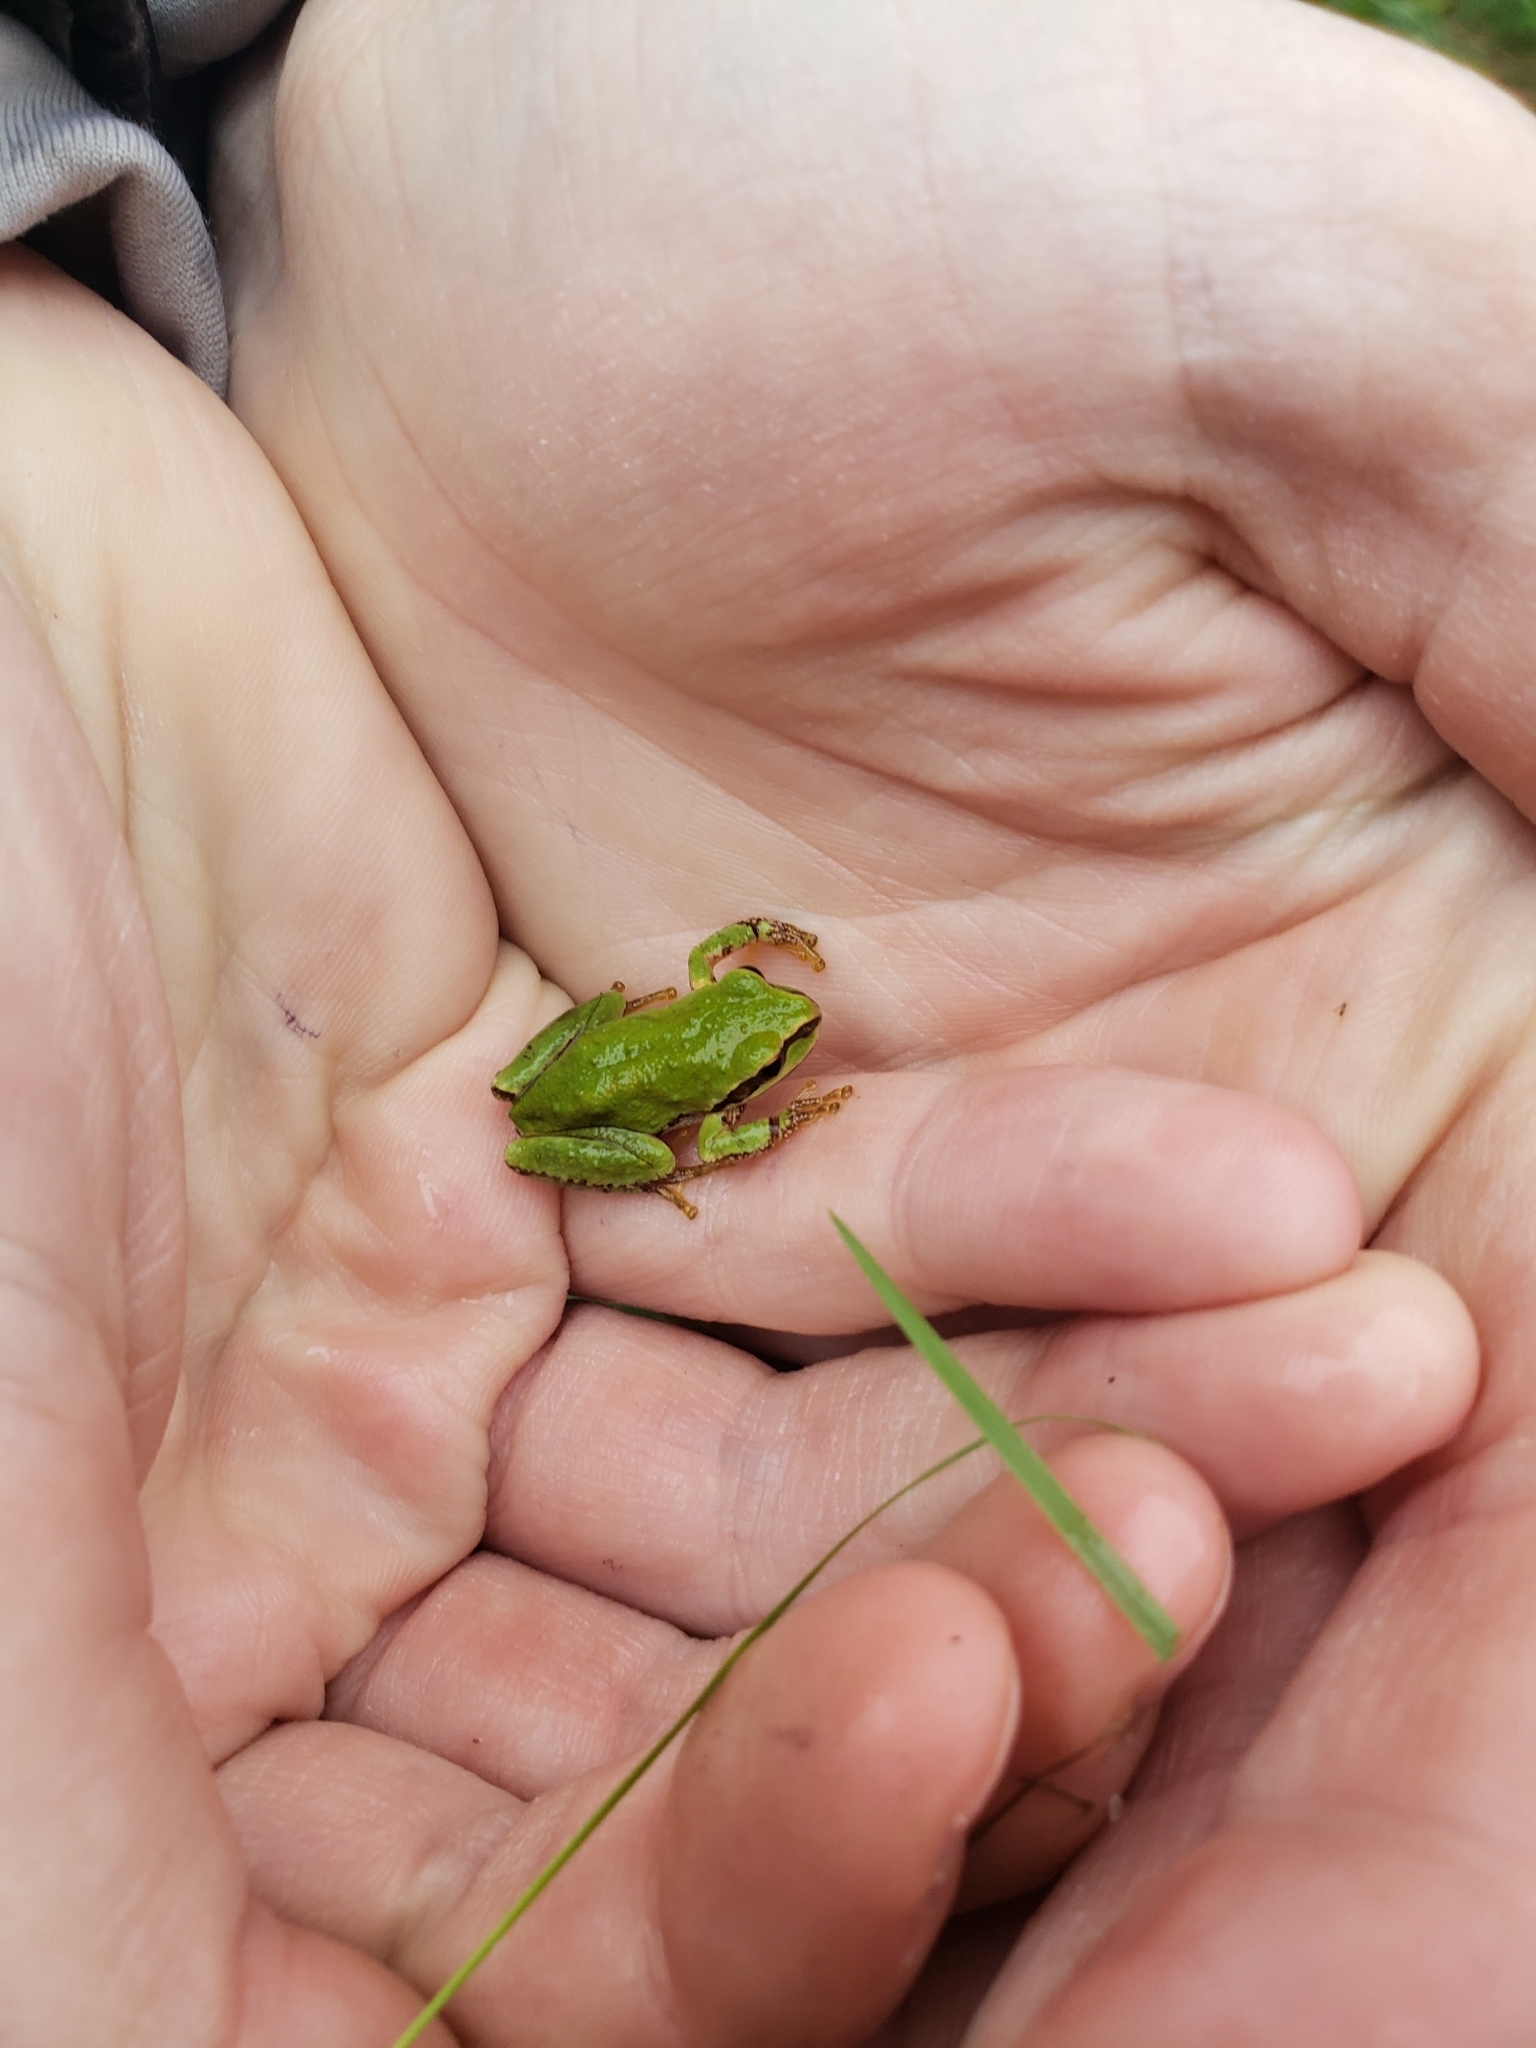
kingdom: Animalia
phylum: Chordata
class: Amphibia
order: Anura
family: Hylidae
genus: Pseudacris
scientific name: Pseudacris regilla
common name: Pacific chorus frog
